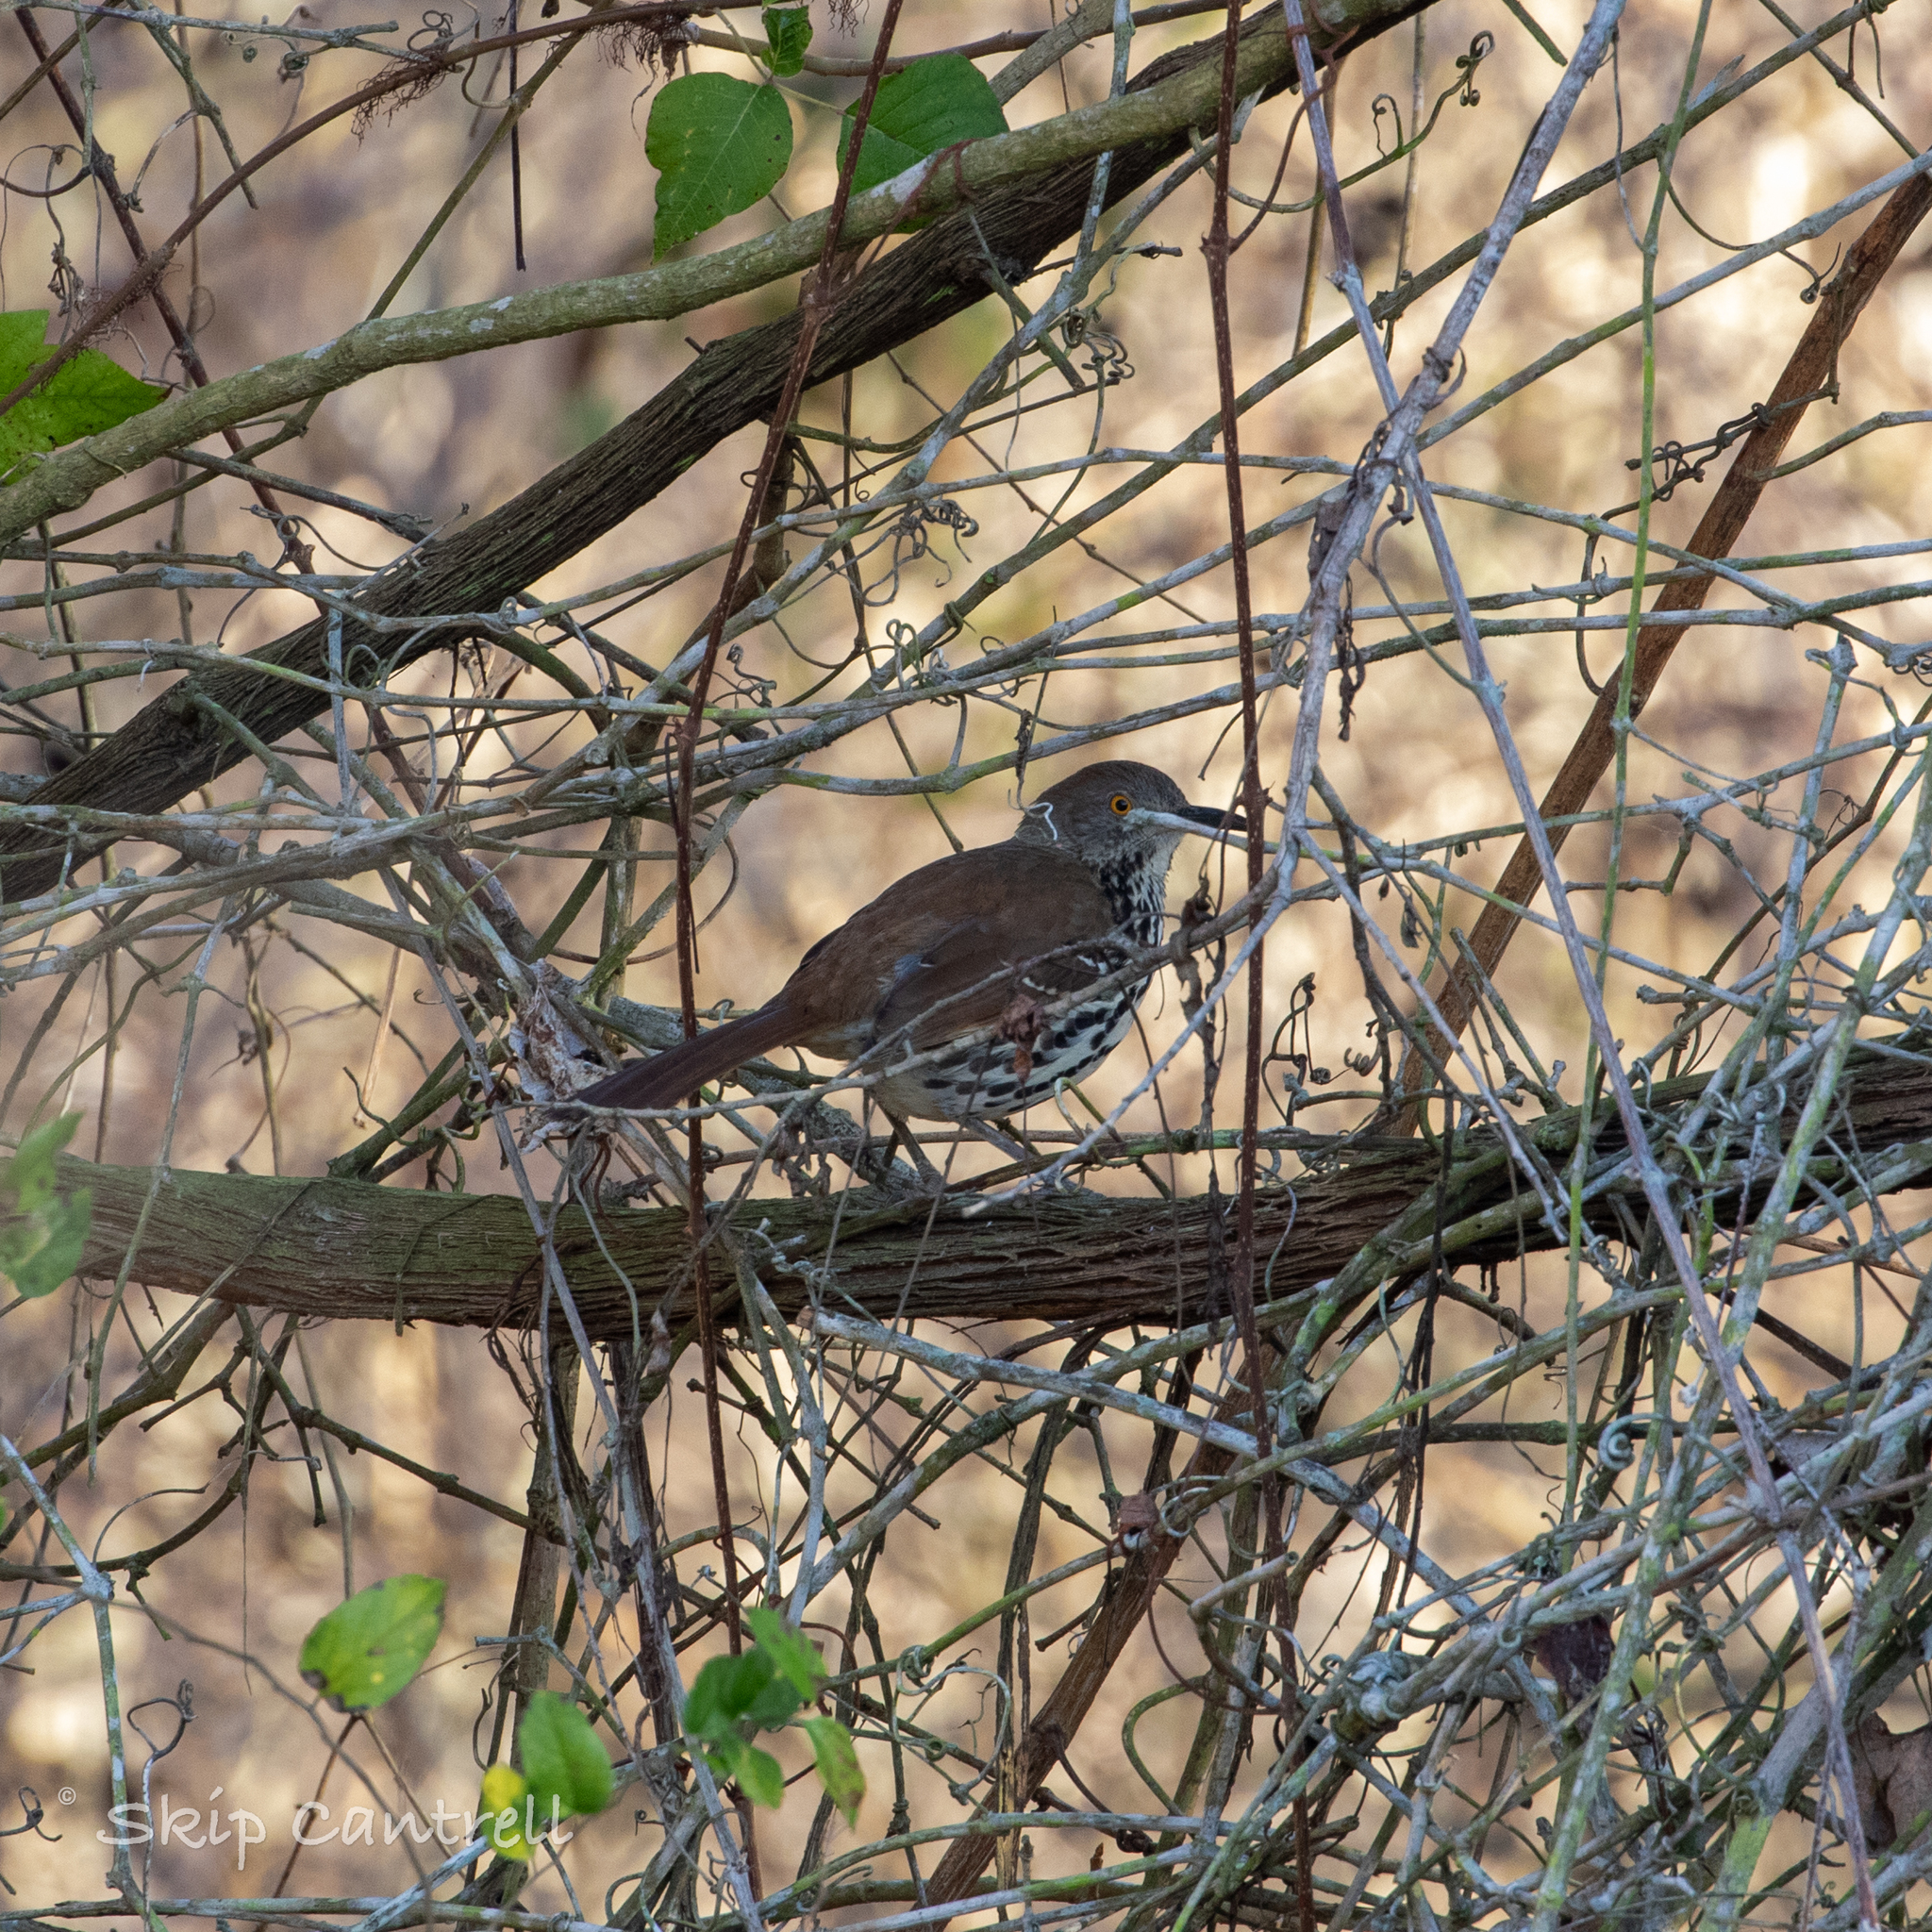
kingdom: Animalia
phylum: Chordata
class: Aves
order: Passeriformes
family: Mimidae
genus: Toxostoma
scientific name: Toxostoma longirostre
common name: Long-billed thrasher
